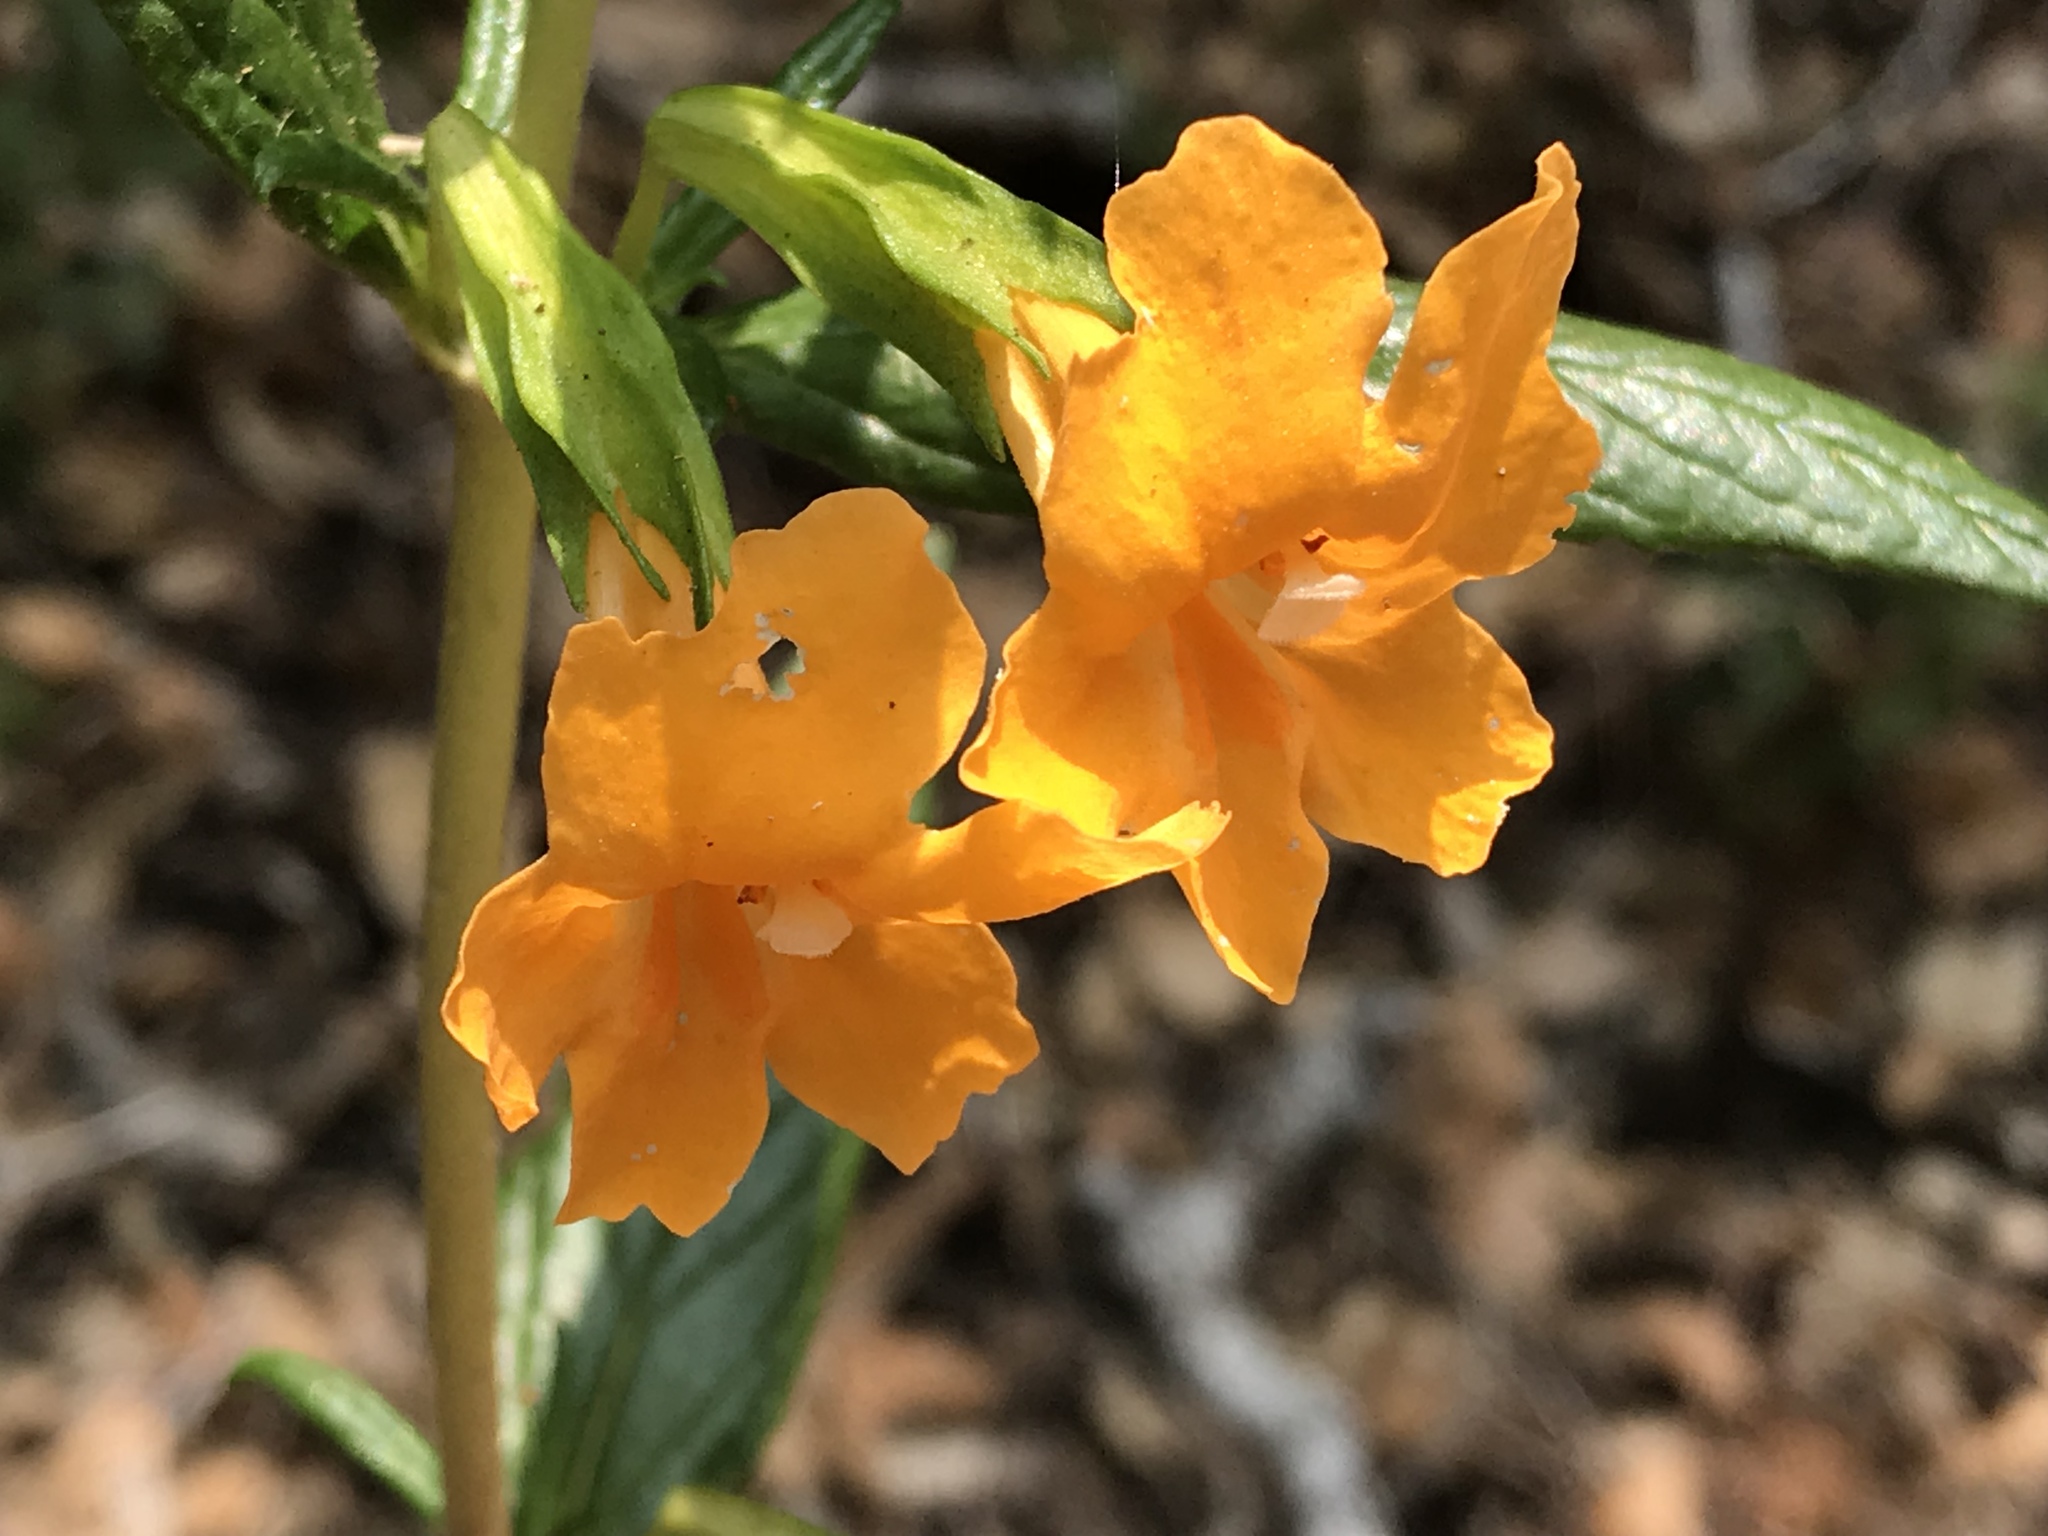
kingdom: Plantae
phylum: Tracheophyta
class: Magnoliopsida
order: Lamiales
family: Phrymaceae
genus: Diplacus
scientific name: Diplacus aurantiacus
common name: Bush monkey-flower
